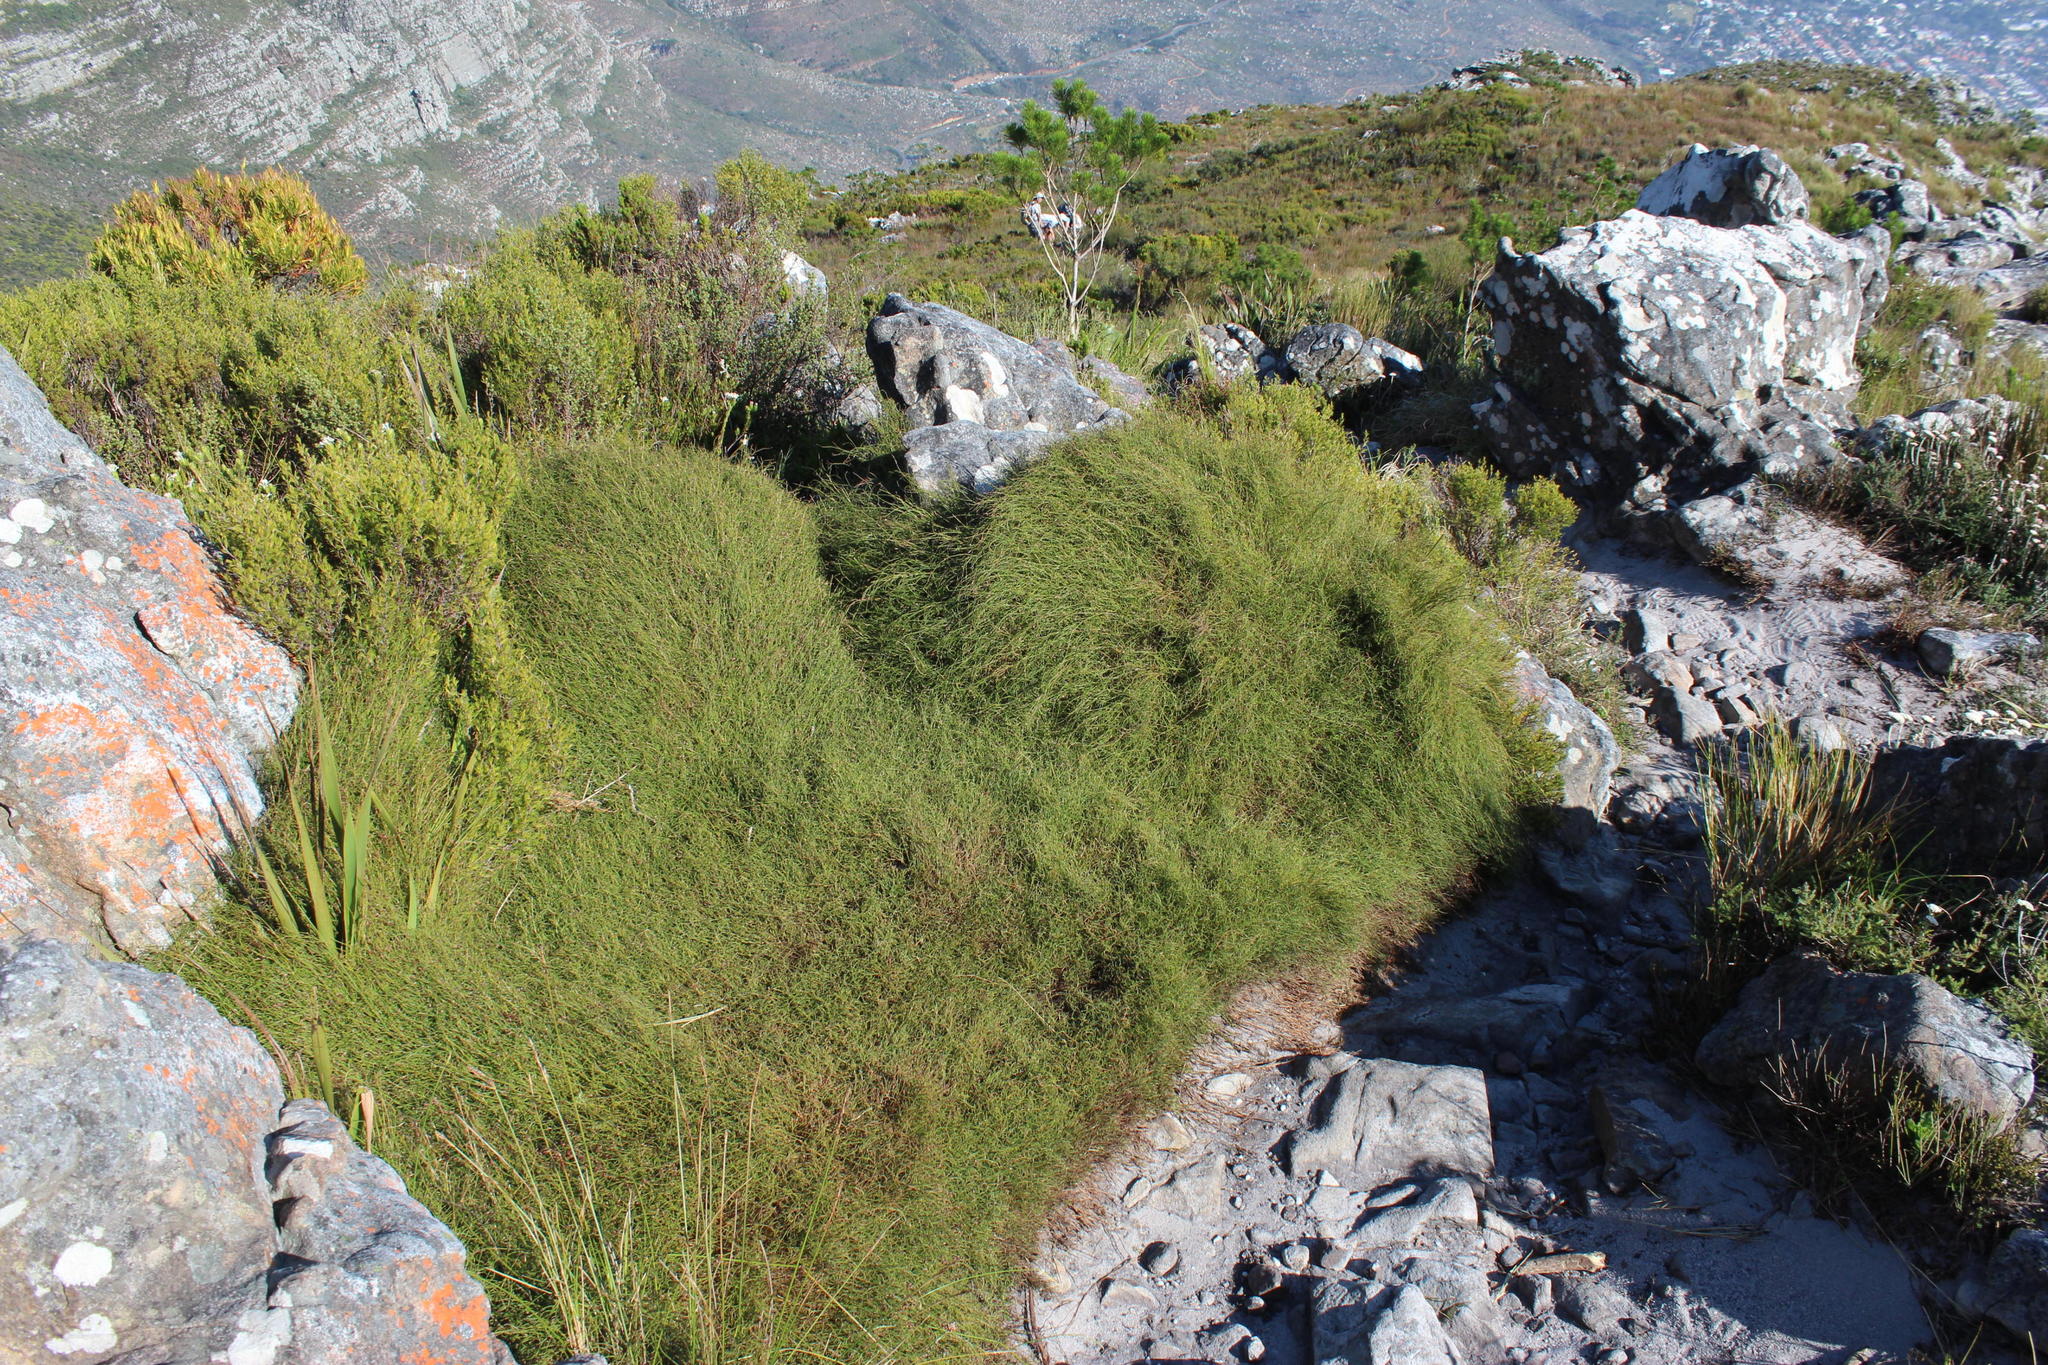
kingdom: Plantae
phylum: Tracheophyta
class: Liliopsida
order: Poales
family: Restionaceae
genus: Restio
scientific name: Restio perplexus
